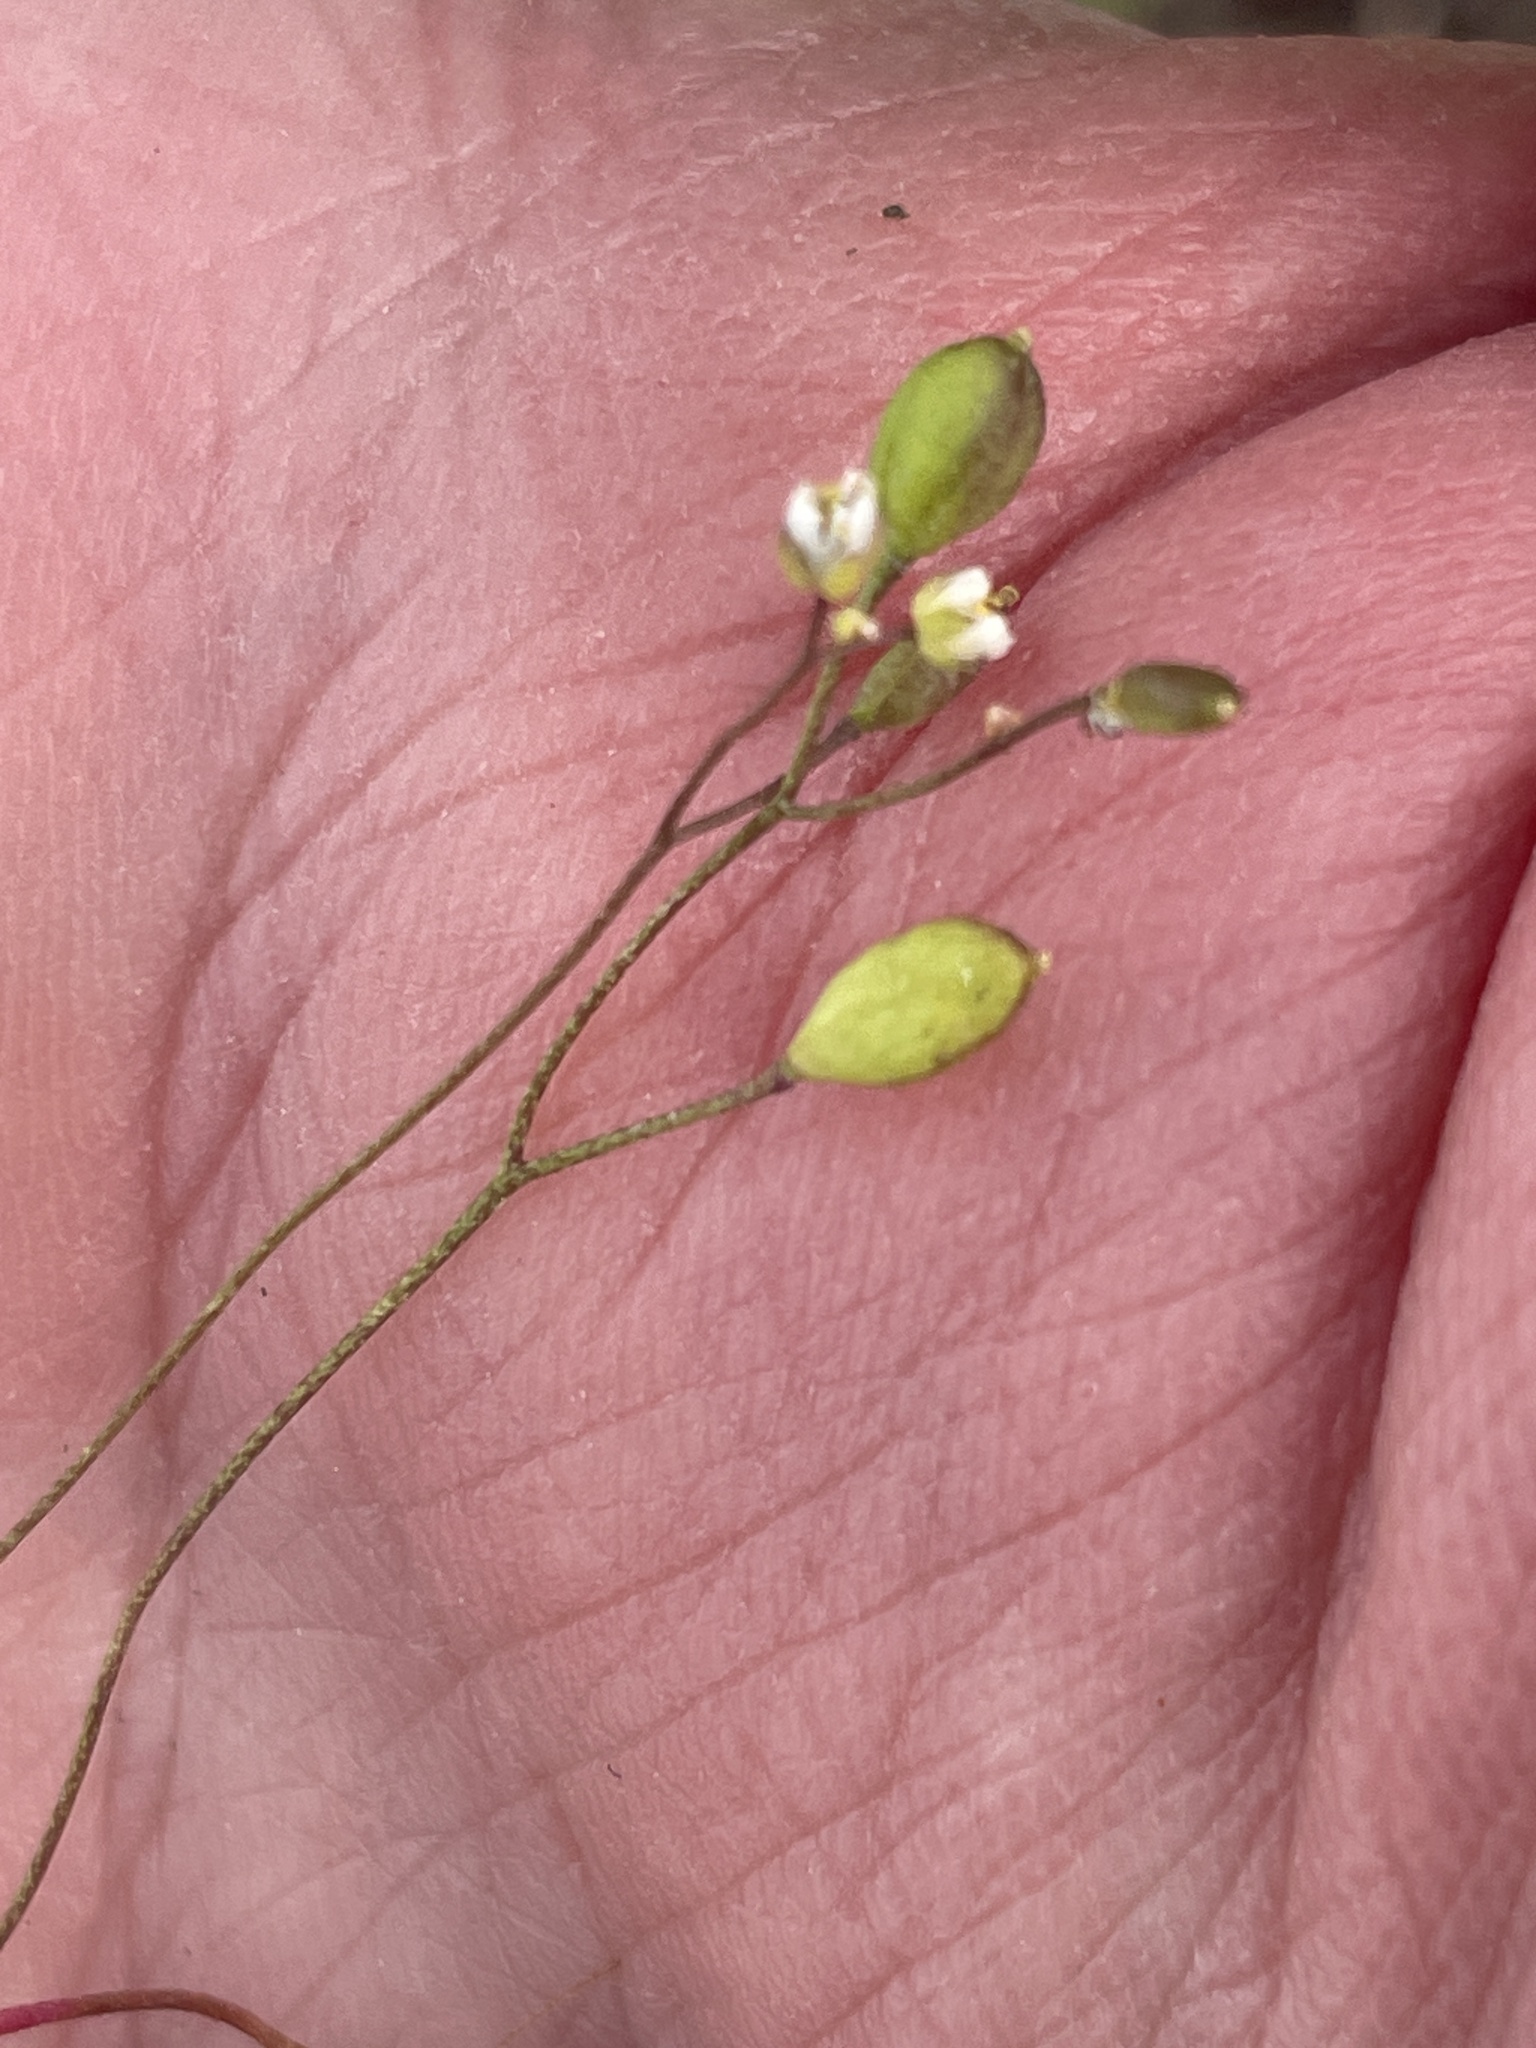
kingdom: Plantae
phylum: Tracheophyta
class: Magnoliopsida
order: Brassicales
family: Brassicaceae
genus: Draba
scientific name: Draba verna
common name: Spring draba
